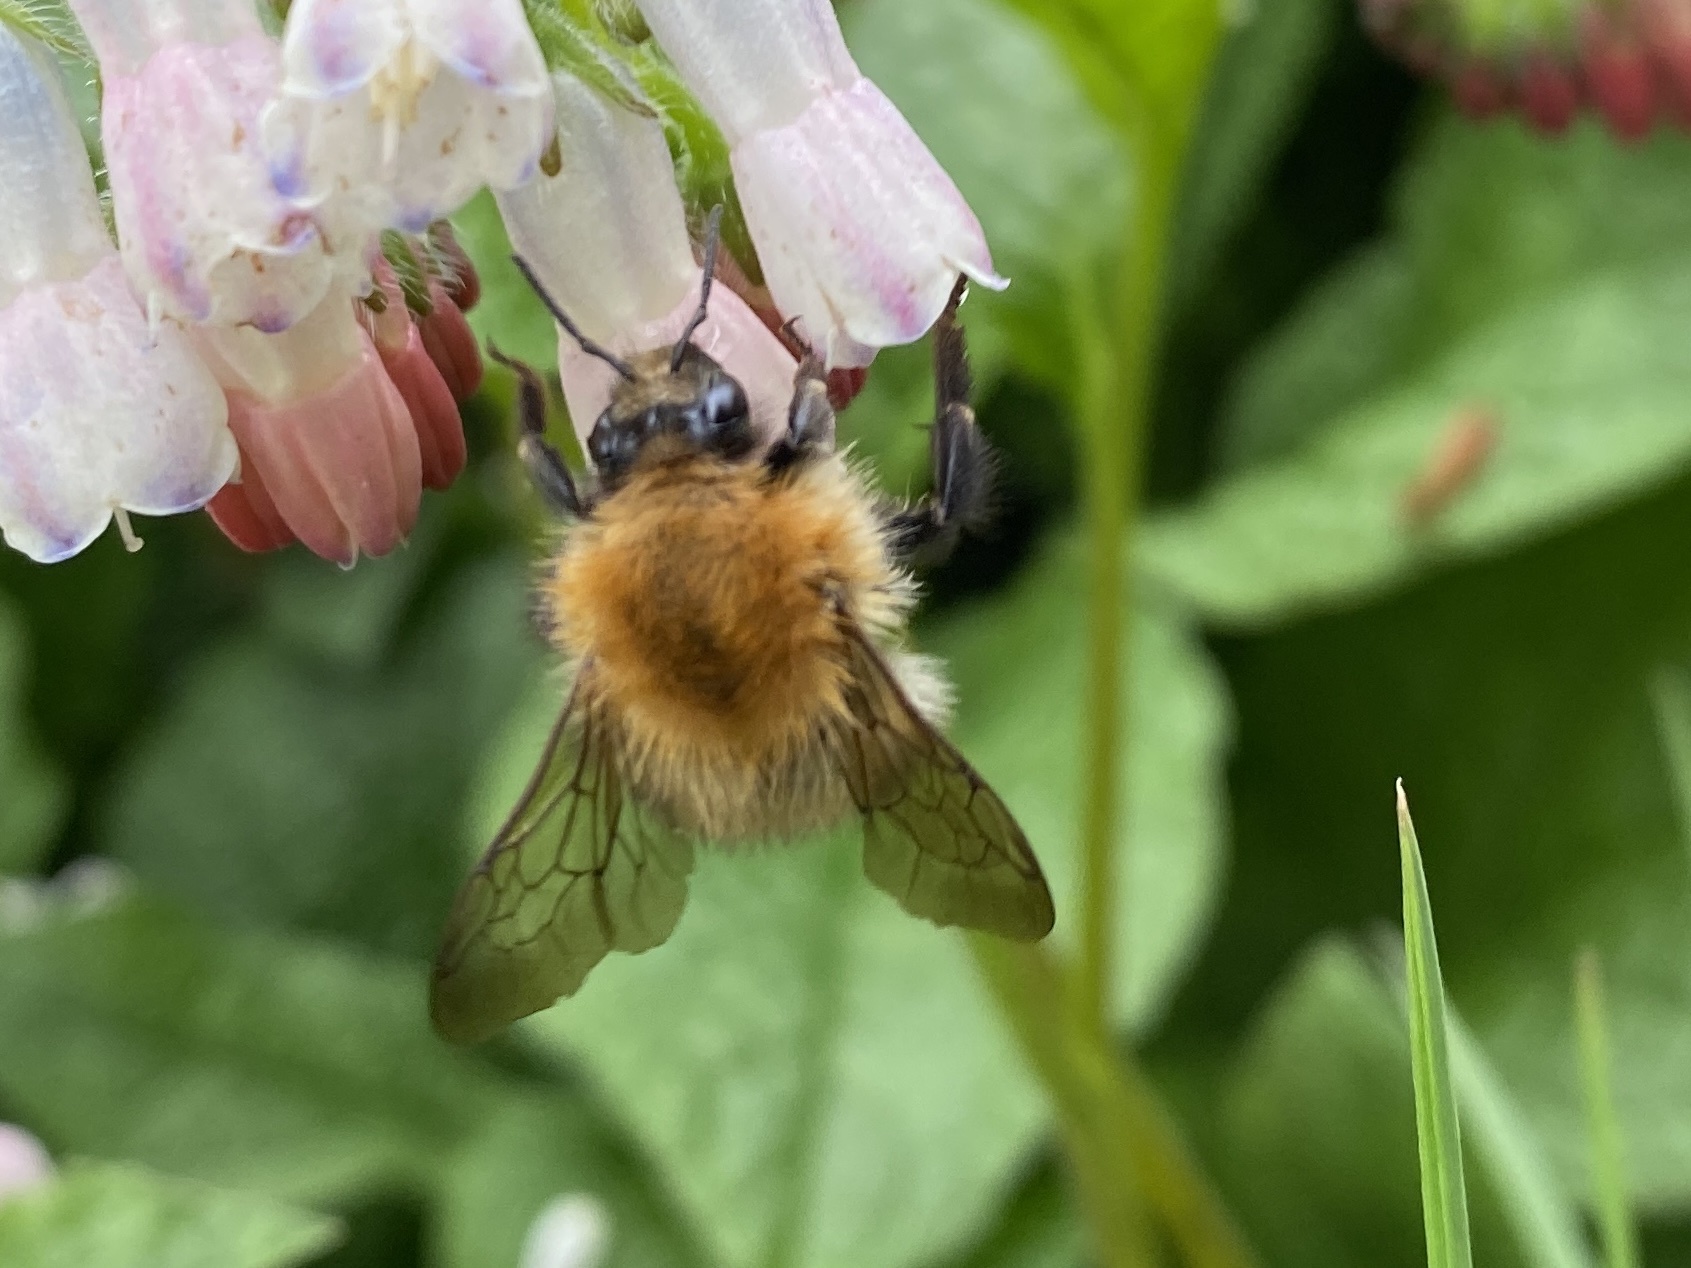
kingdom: Animalia
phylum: Arthropoda
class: Insecta
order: Hymenoptera
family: Apidae
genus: Bombus
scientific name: Bombus pascuorum
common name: Common carder bee
